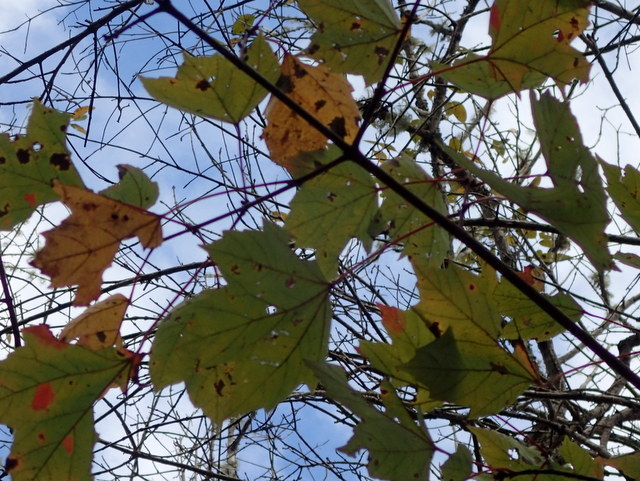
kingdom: Plantae
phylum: Tracheophyta
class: Magnoliopsida
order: Sapindales
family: Sapindaceae
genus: Acer
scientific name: Acer rubrum
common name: Red maple
